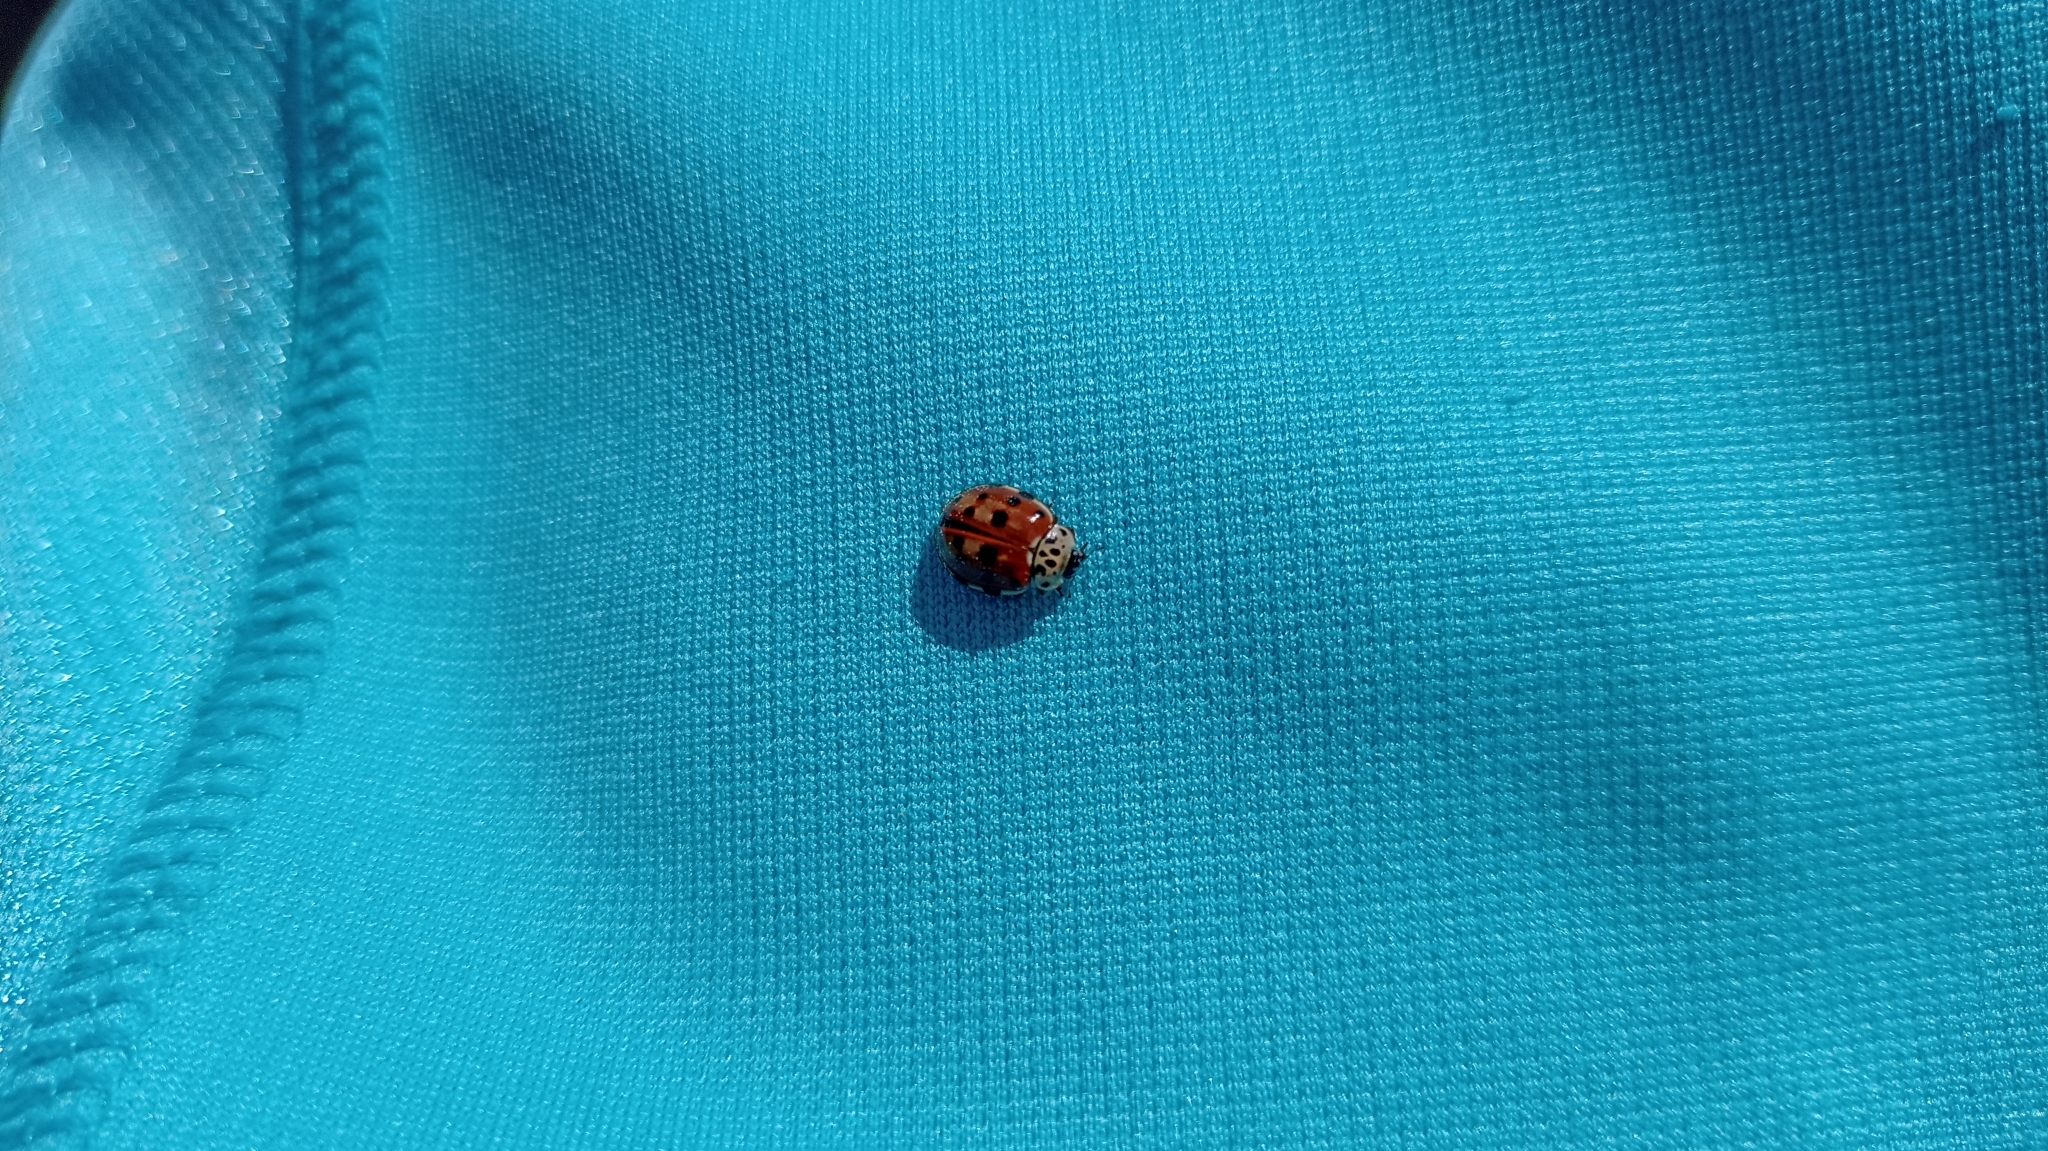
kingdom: Animalia
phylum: Arthropoda
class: Insecta
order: Coleoptera
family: Coccinellidae
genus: Harmonia
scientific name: Harmonia quadripunctata
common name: Cream-streaked ladybird
